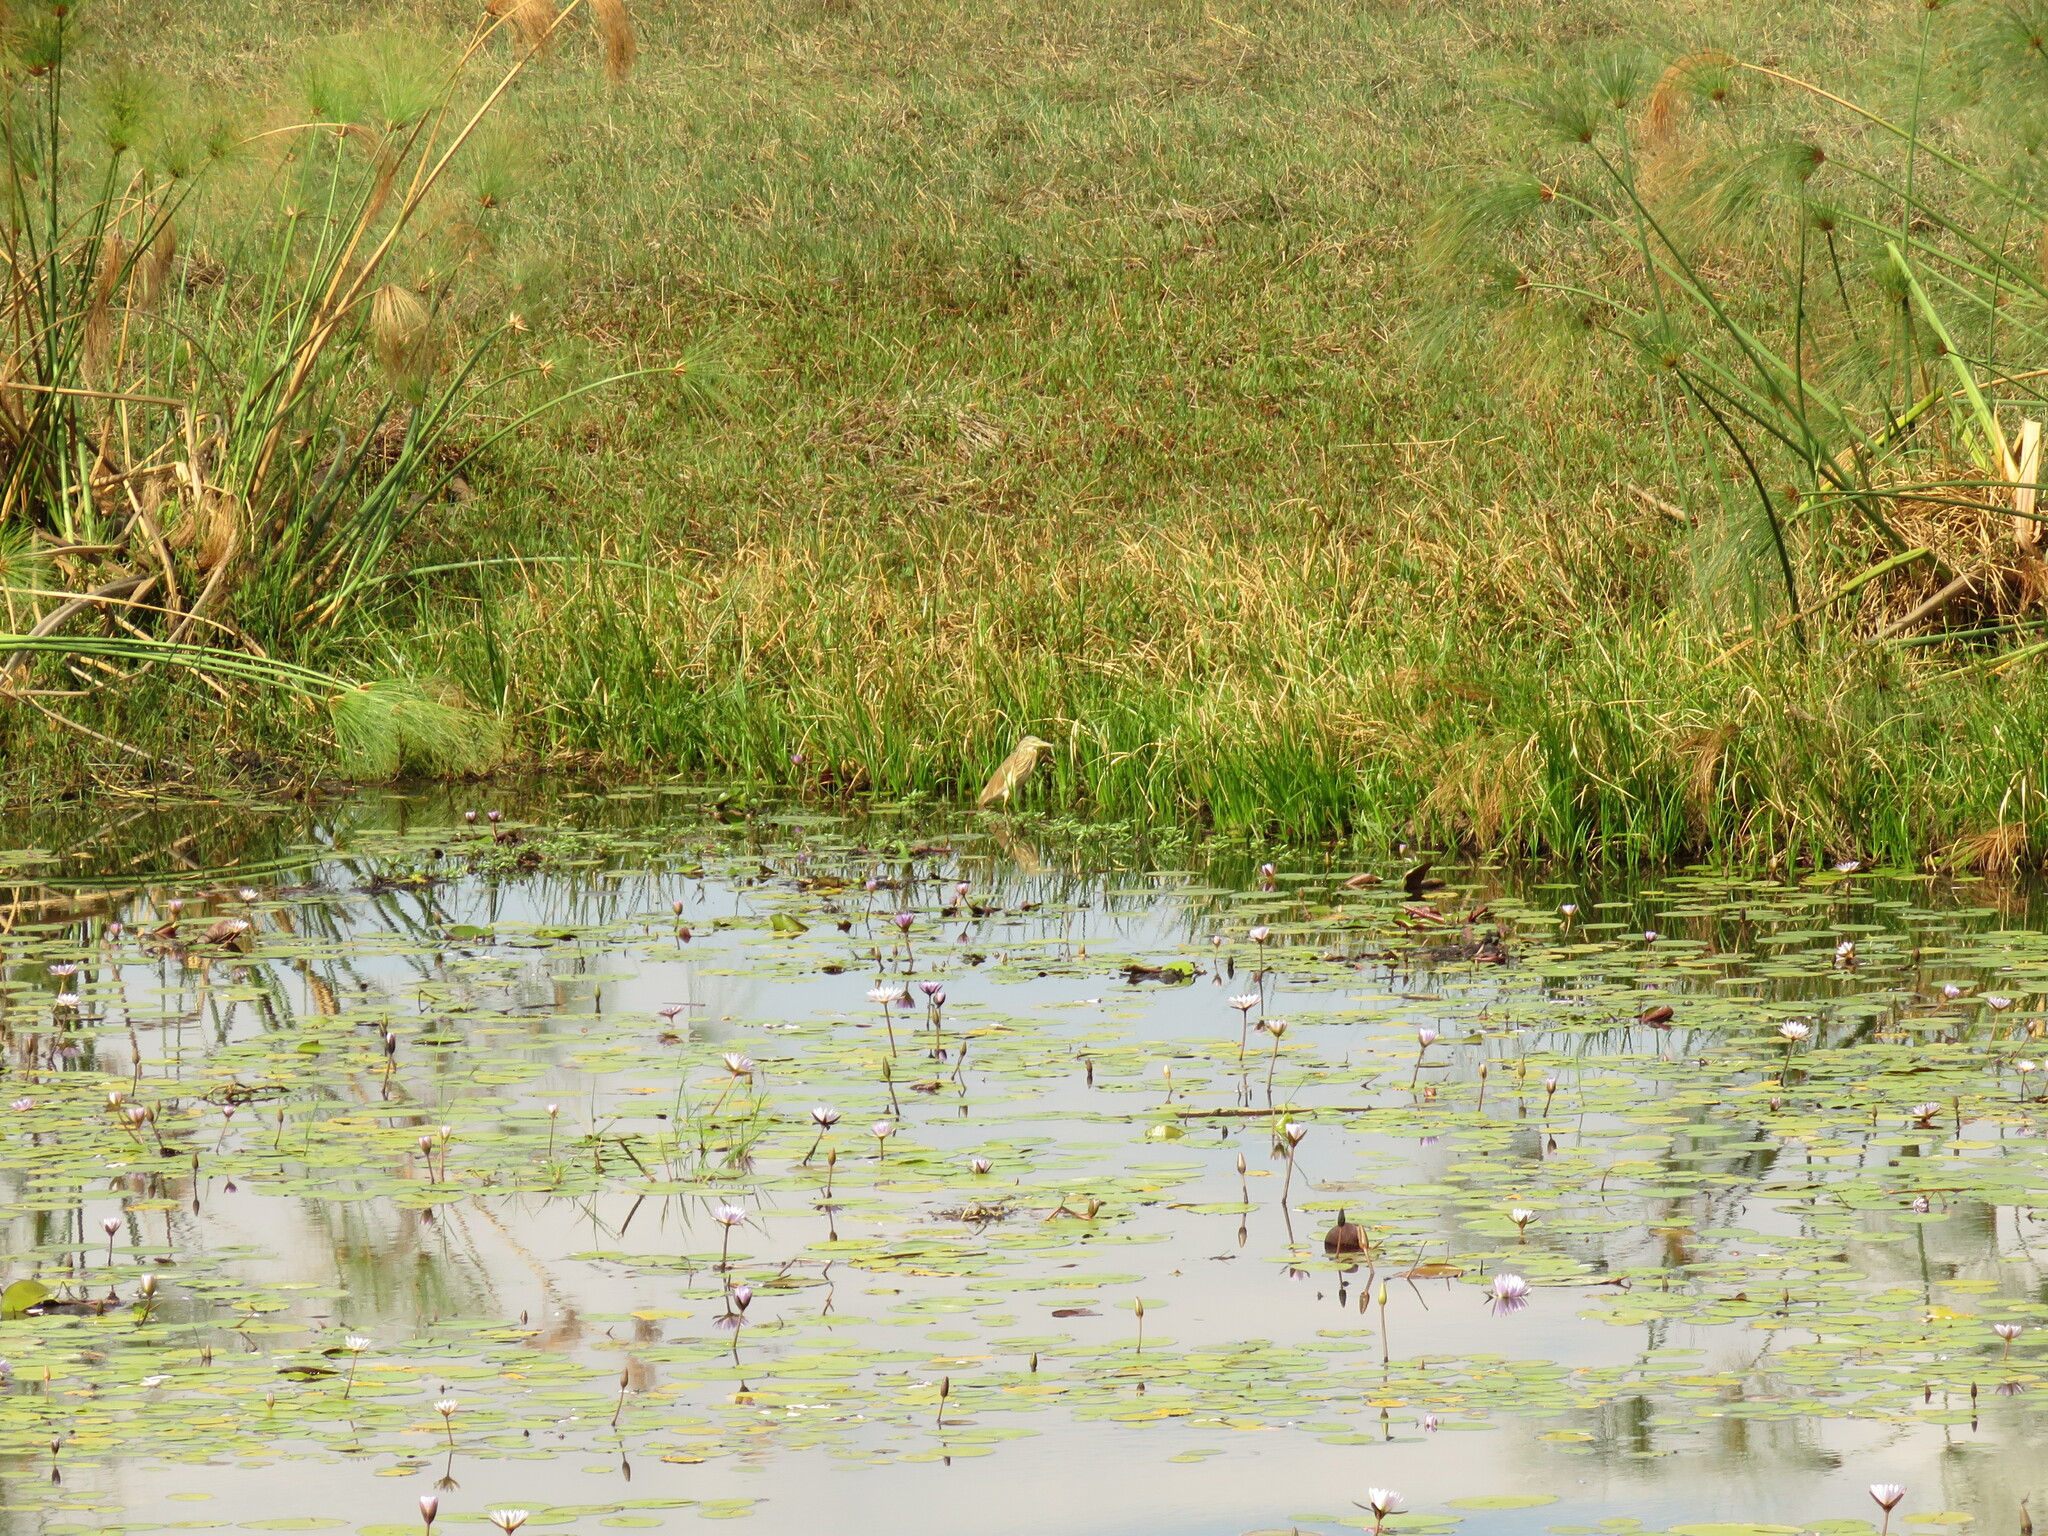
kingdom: Animalia
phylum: Chordata
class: Aves
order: Pelecaniformes
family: Ardeidae
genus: Ardeola
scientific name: Ardeola ralloides
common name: Squacco heron
